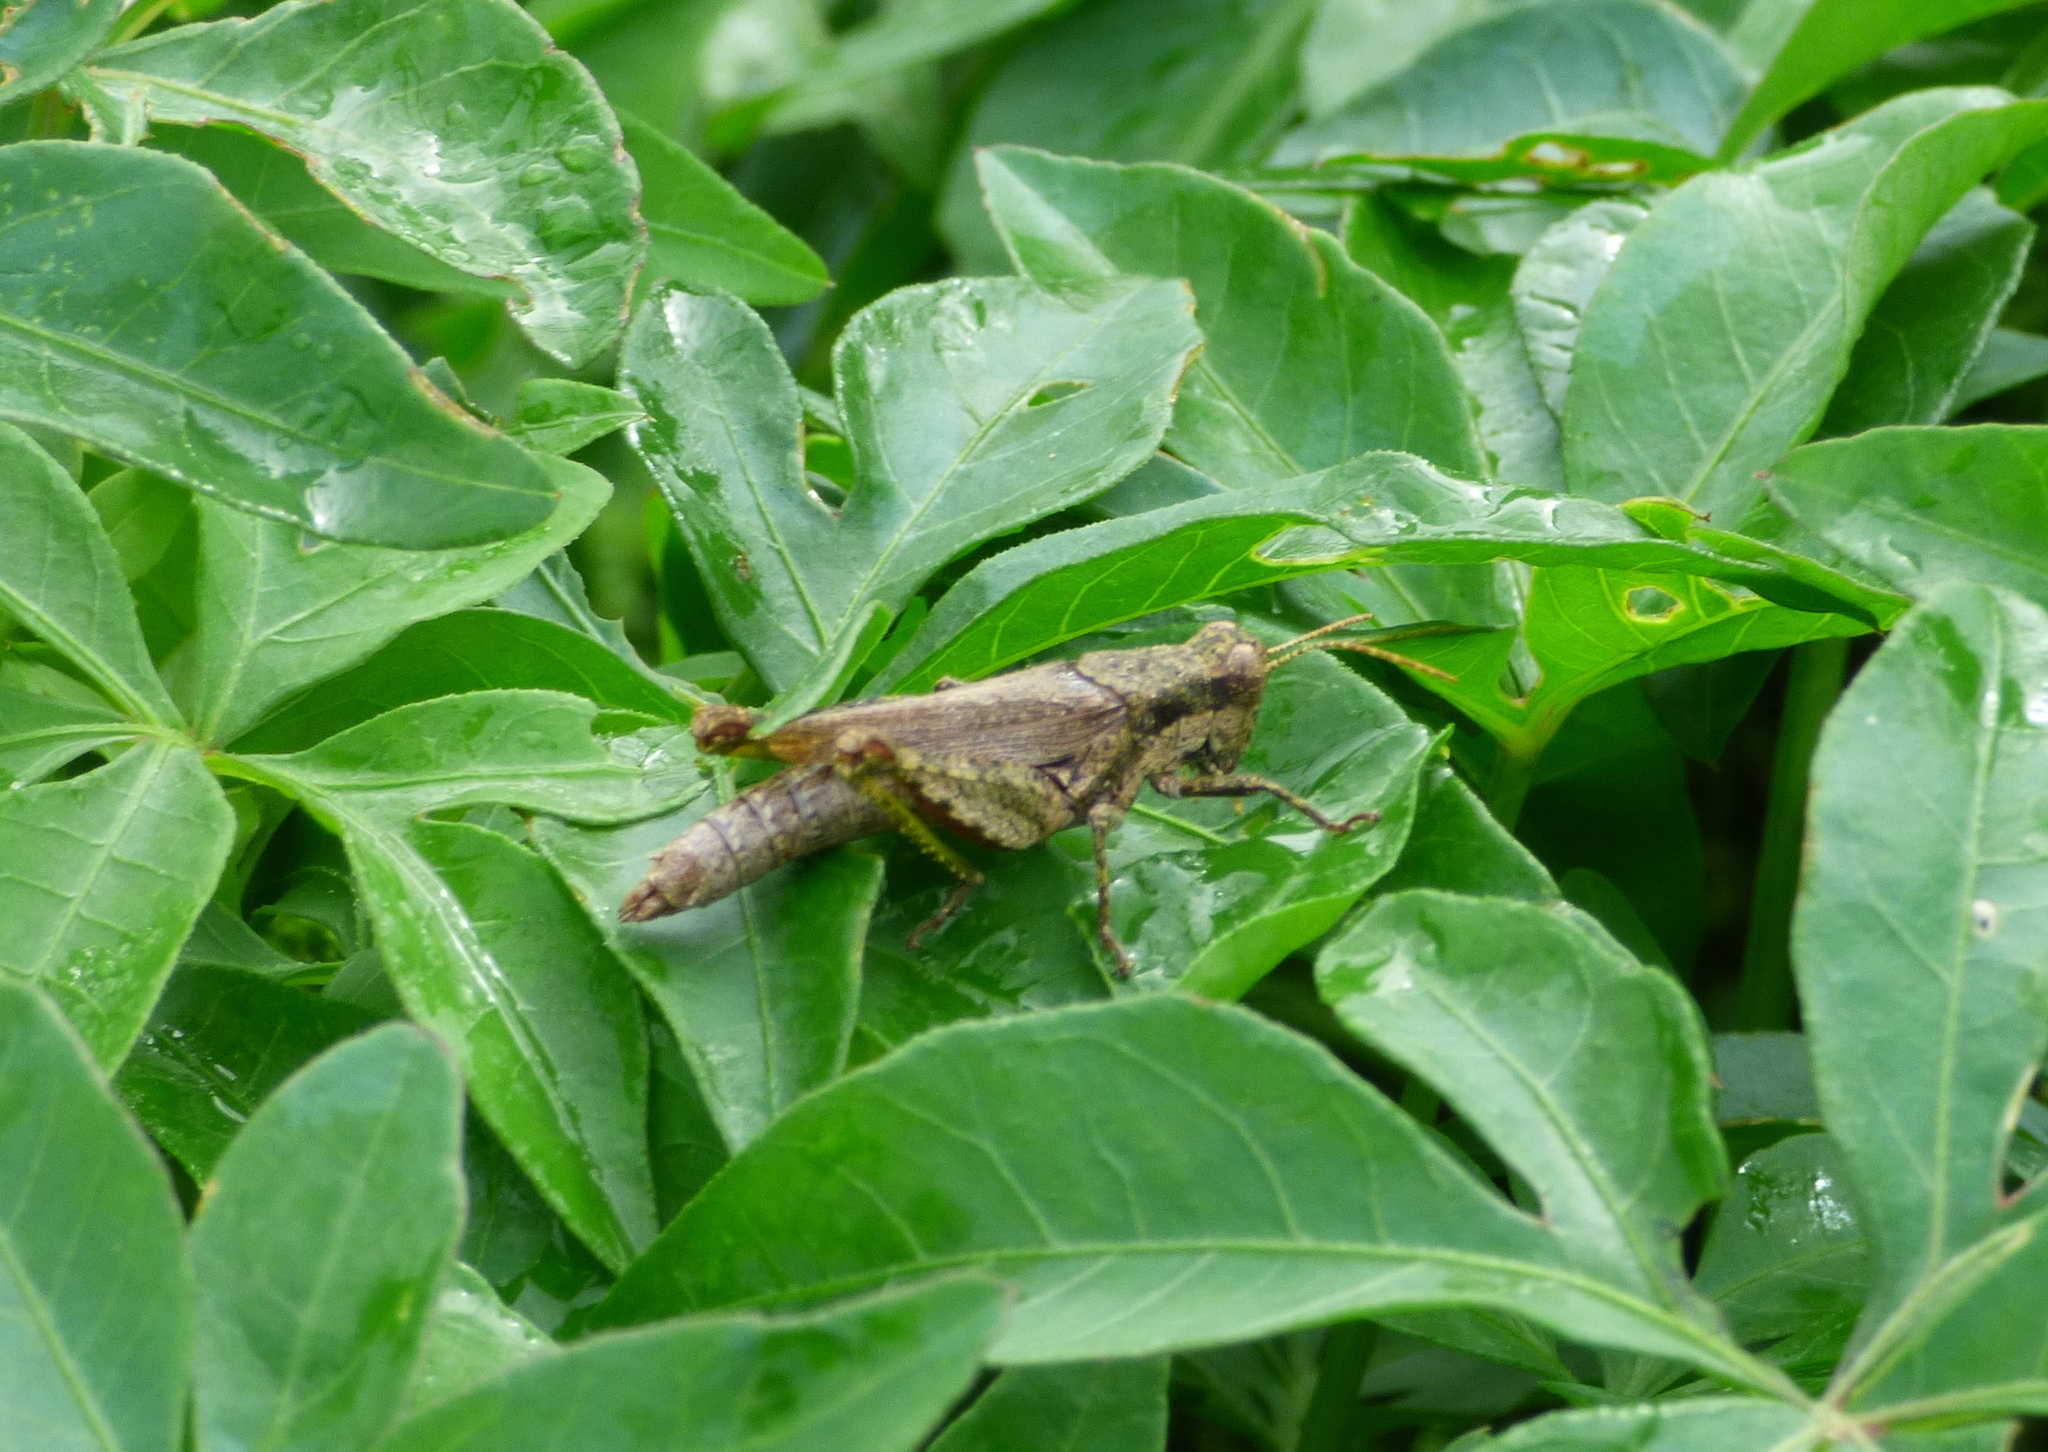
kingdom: Animalia
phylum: Arthropoda
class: Insecta
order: Orthoptera
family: Acrididae
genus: Ronderosia
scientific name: Ronderosia bergii
